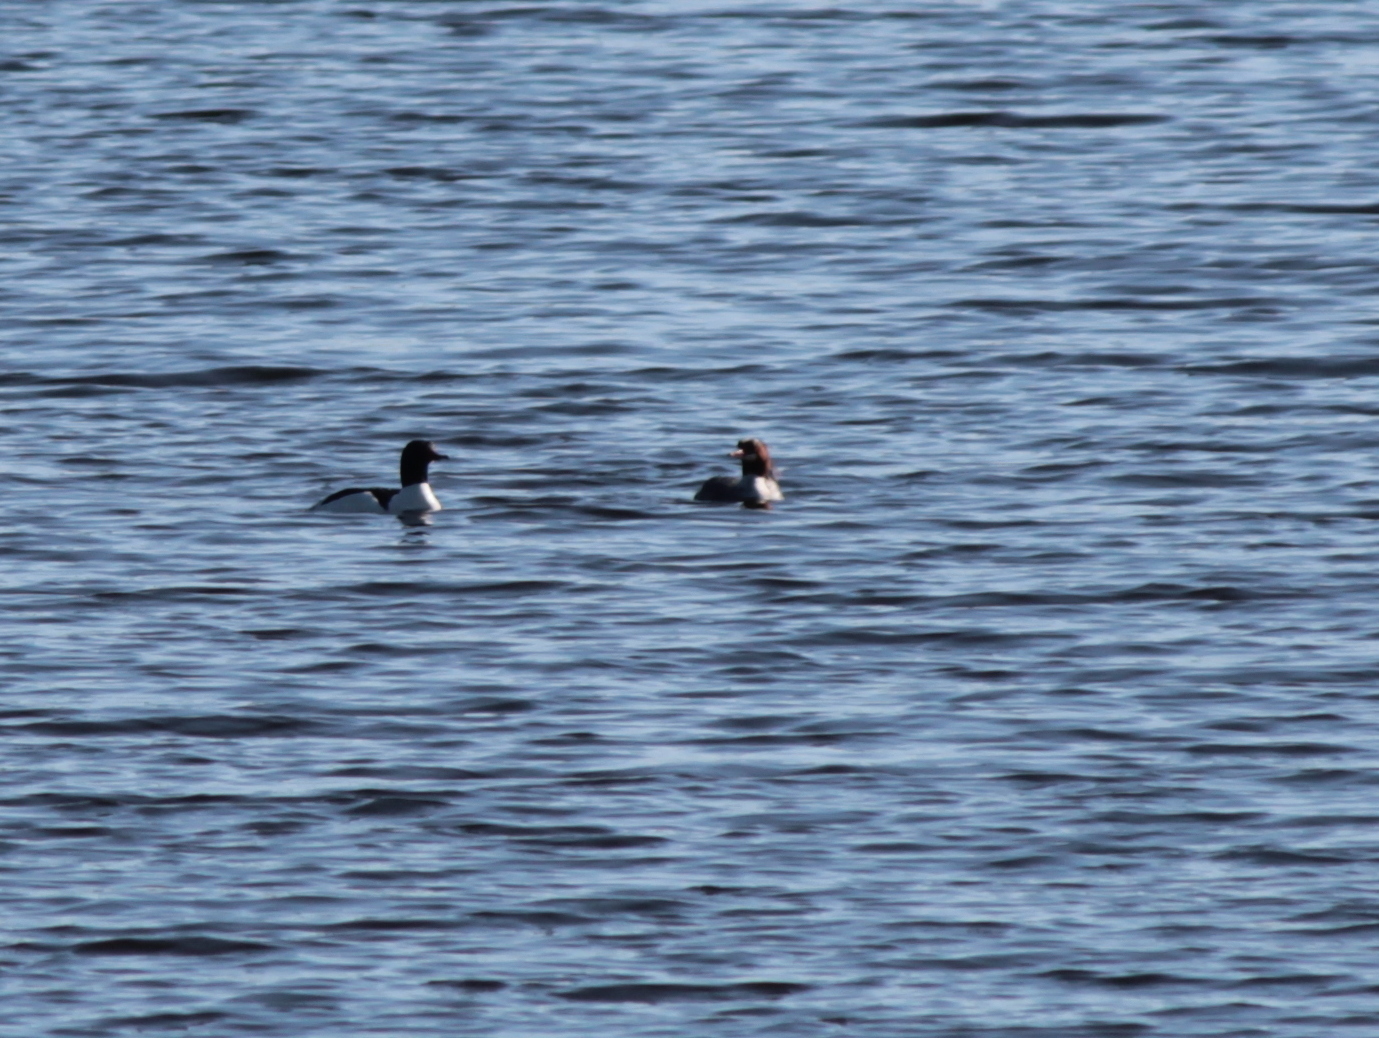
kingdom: Animalia
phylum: Chordata
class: Aves
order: Anseriformes
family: Anatidae
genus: Mergus
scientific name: Mergus merganser
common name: Common merganser
